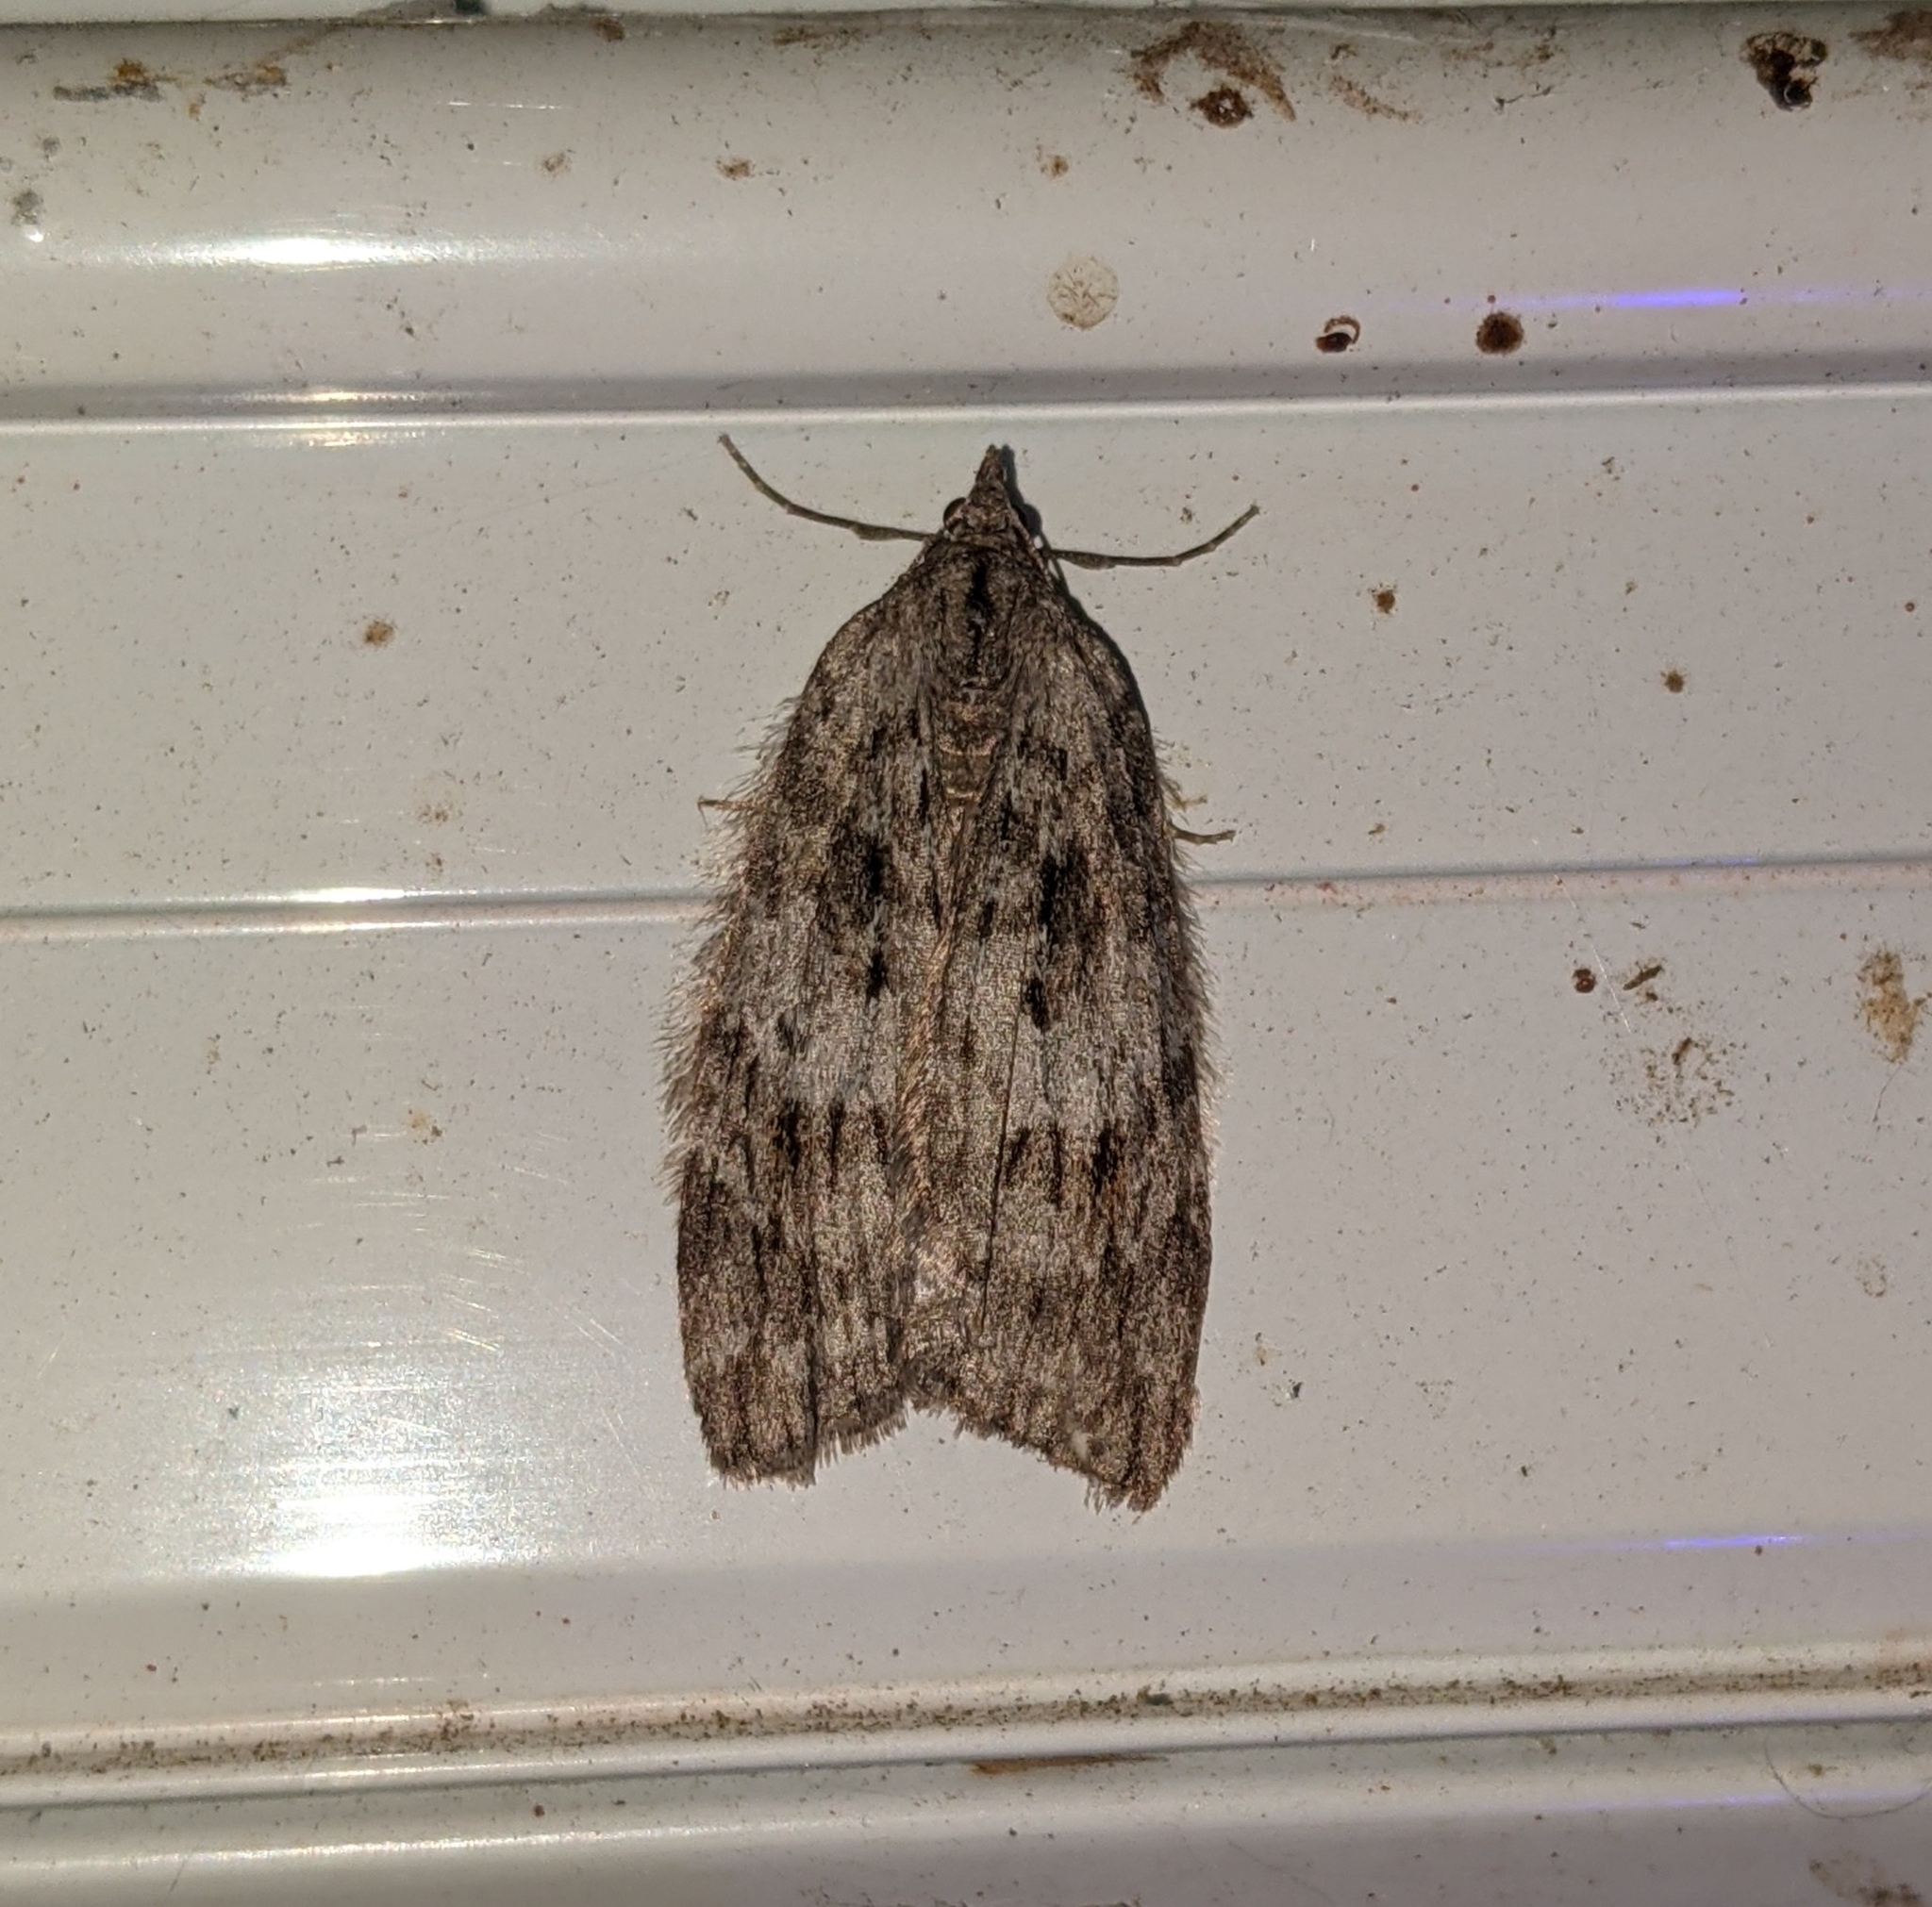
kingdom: Animalia
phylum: Arthropoda
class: Insecta
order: Lepidoptera
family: Geometridae
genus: Hydriomena
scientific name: Hydriomena manzanita
